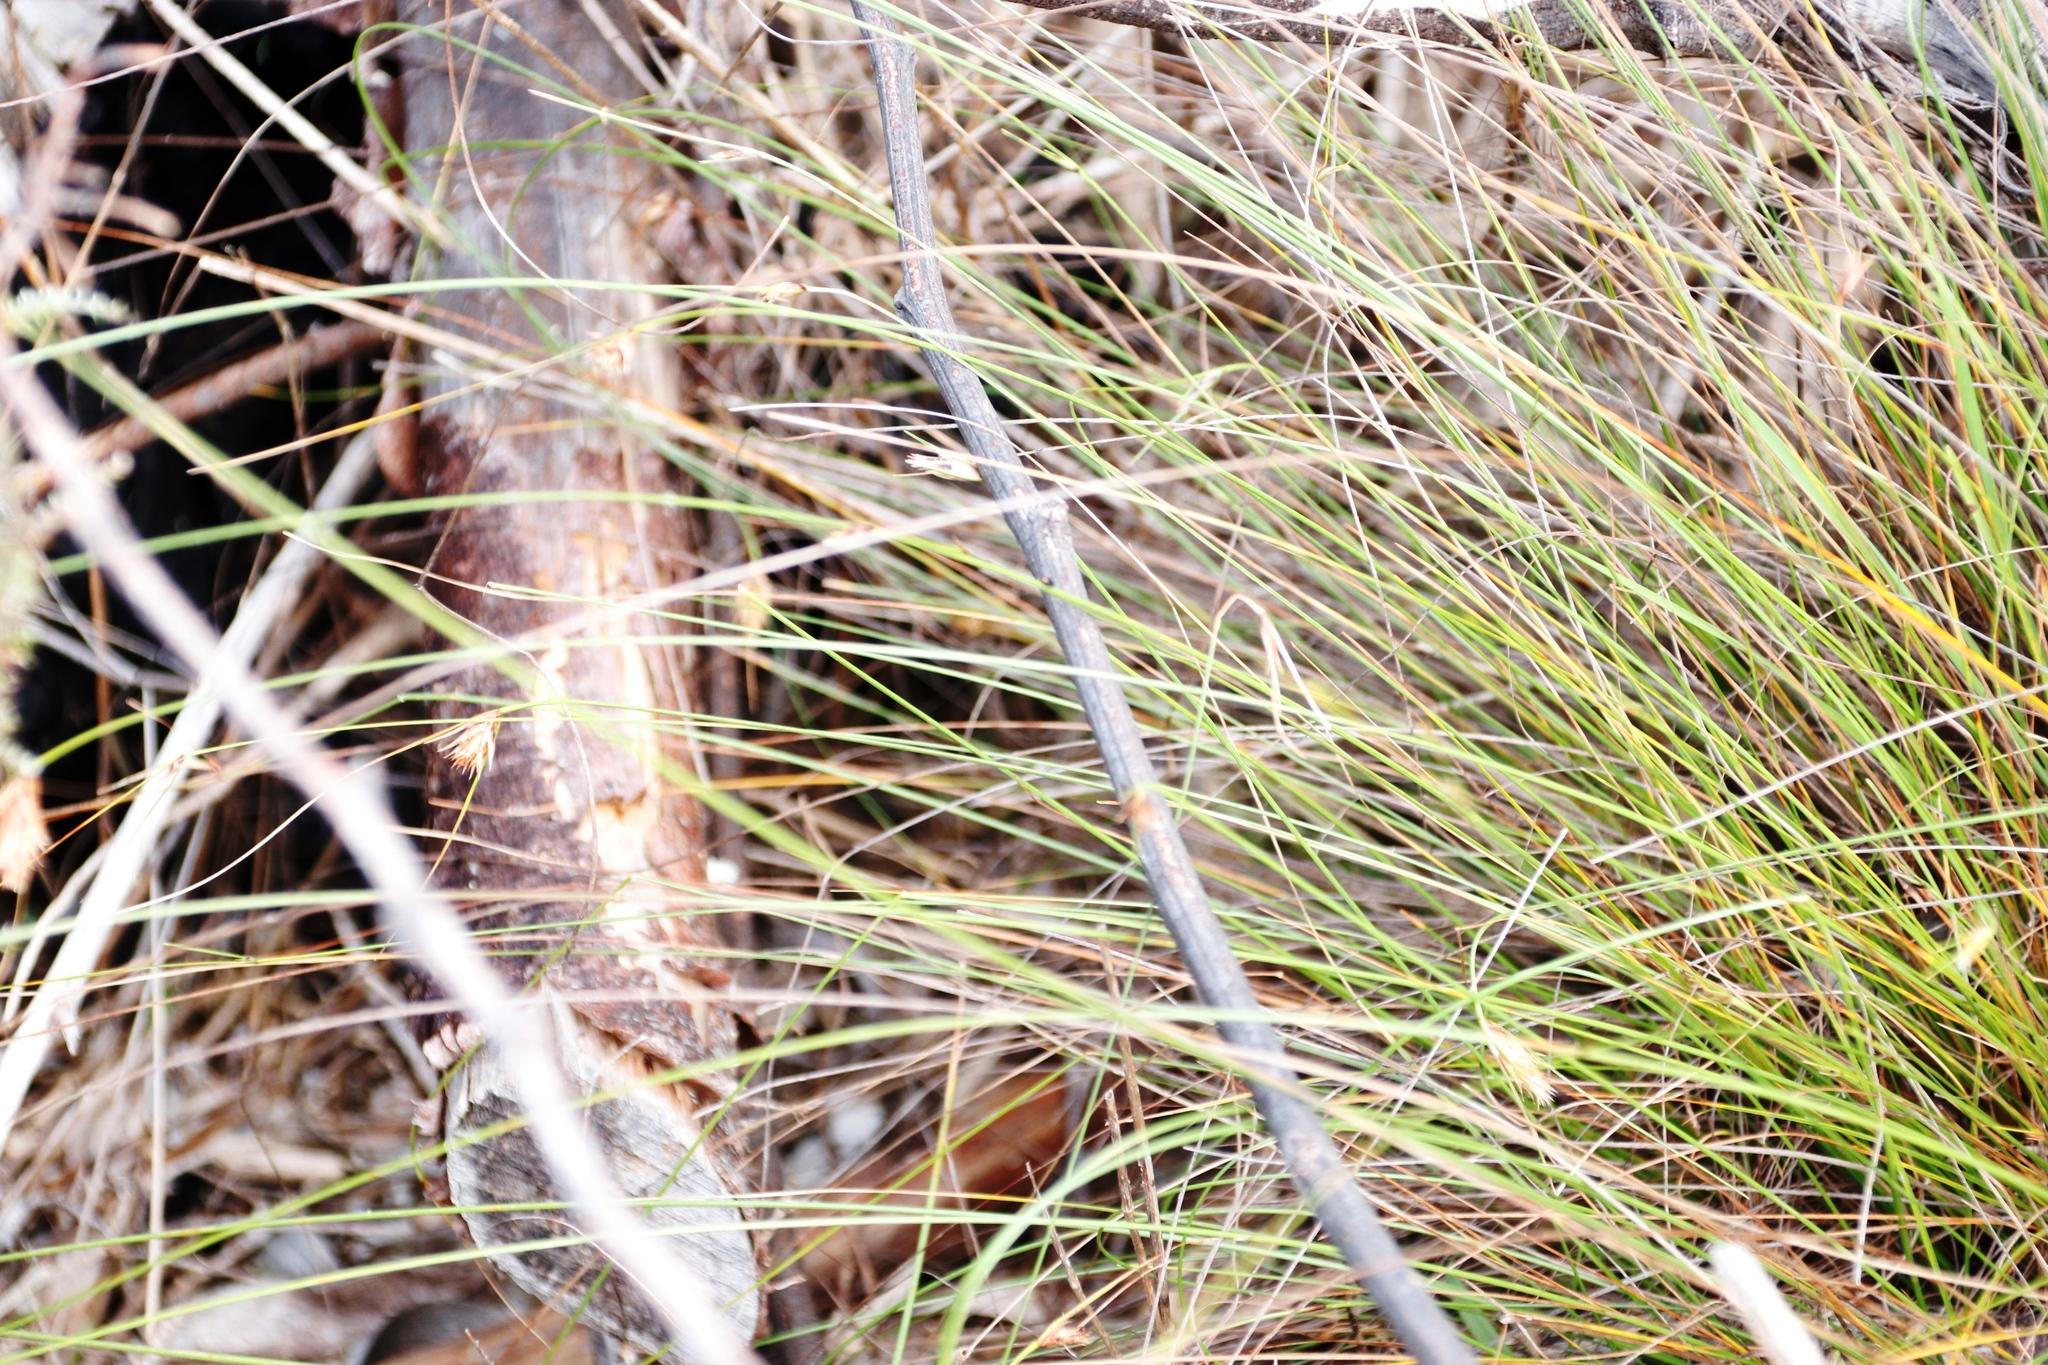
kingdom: Plantae
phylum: Tracheophyta
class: Liliopsida
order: Poales
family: Cyperaceae
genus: Ficinia
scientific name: Ficinia nigrescens
